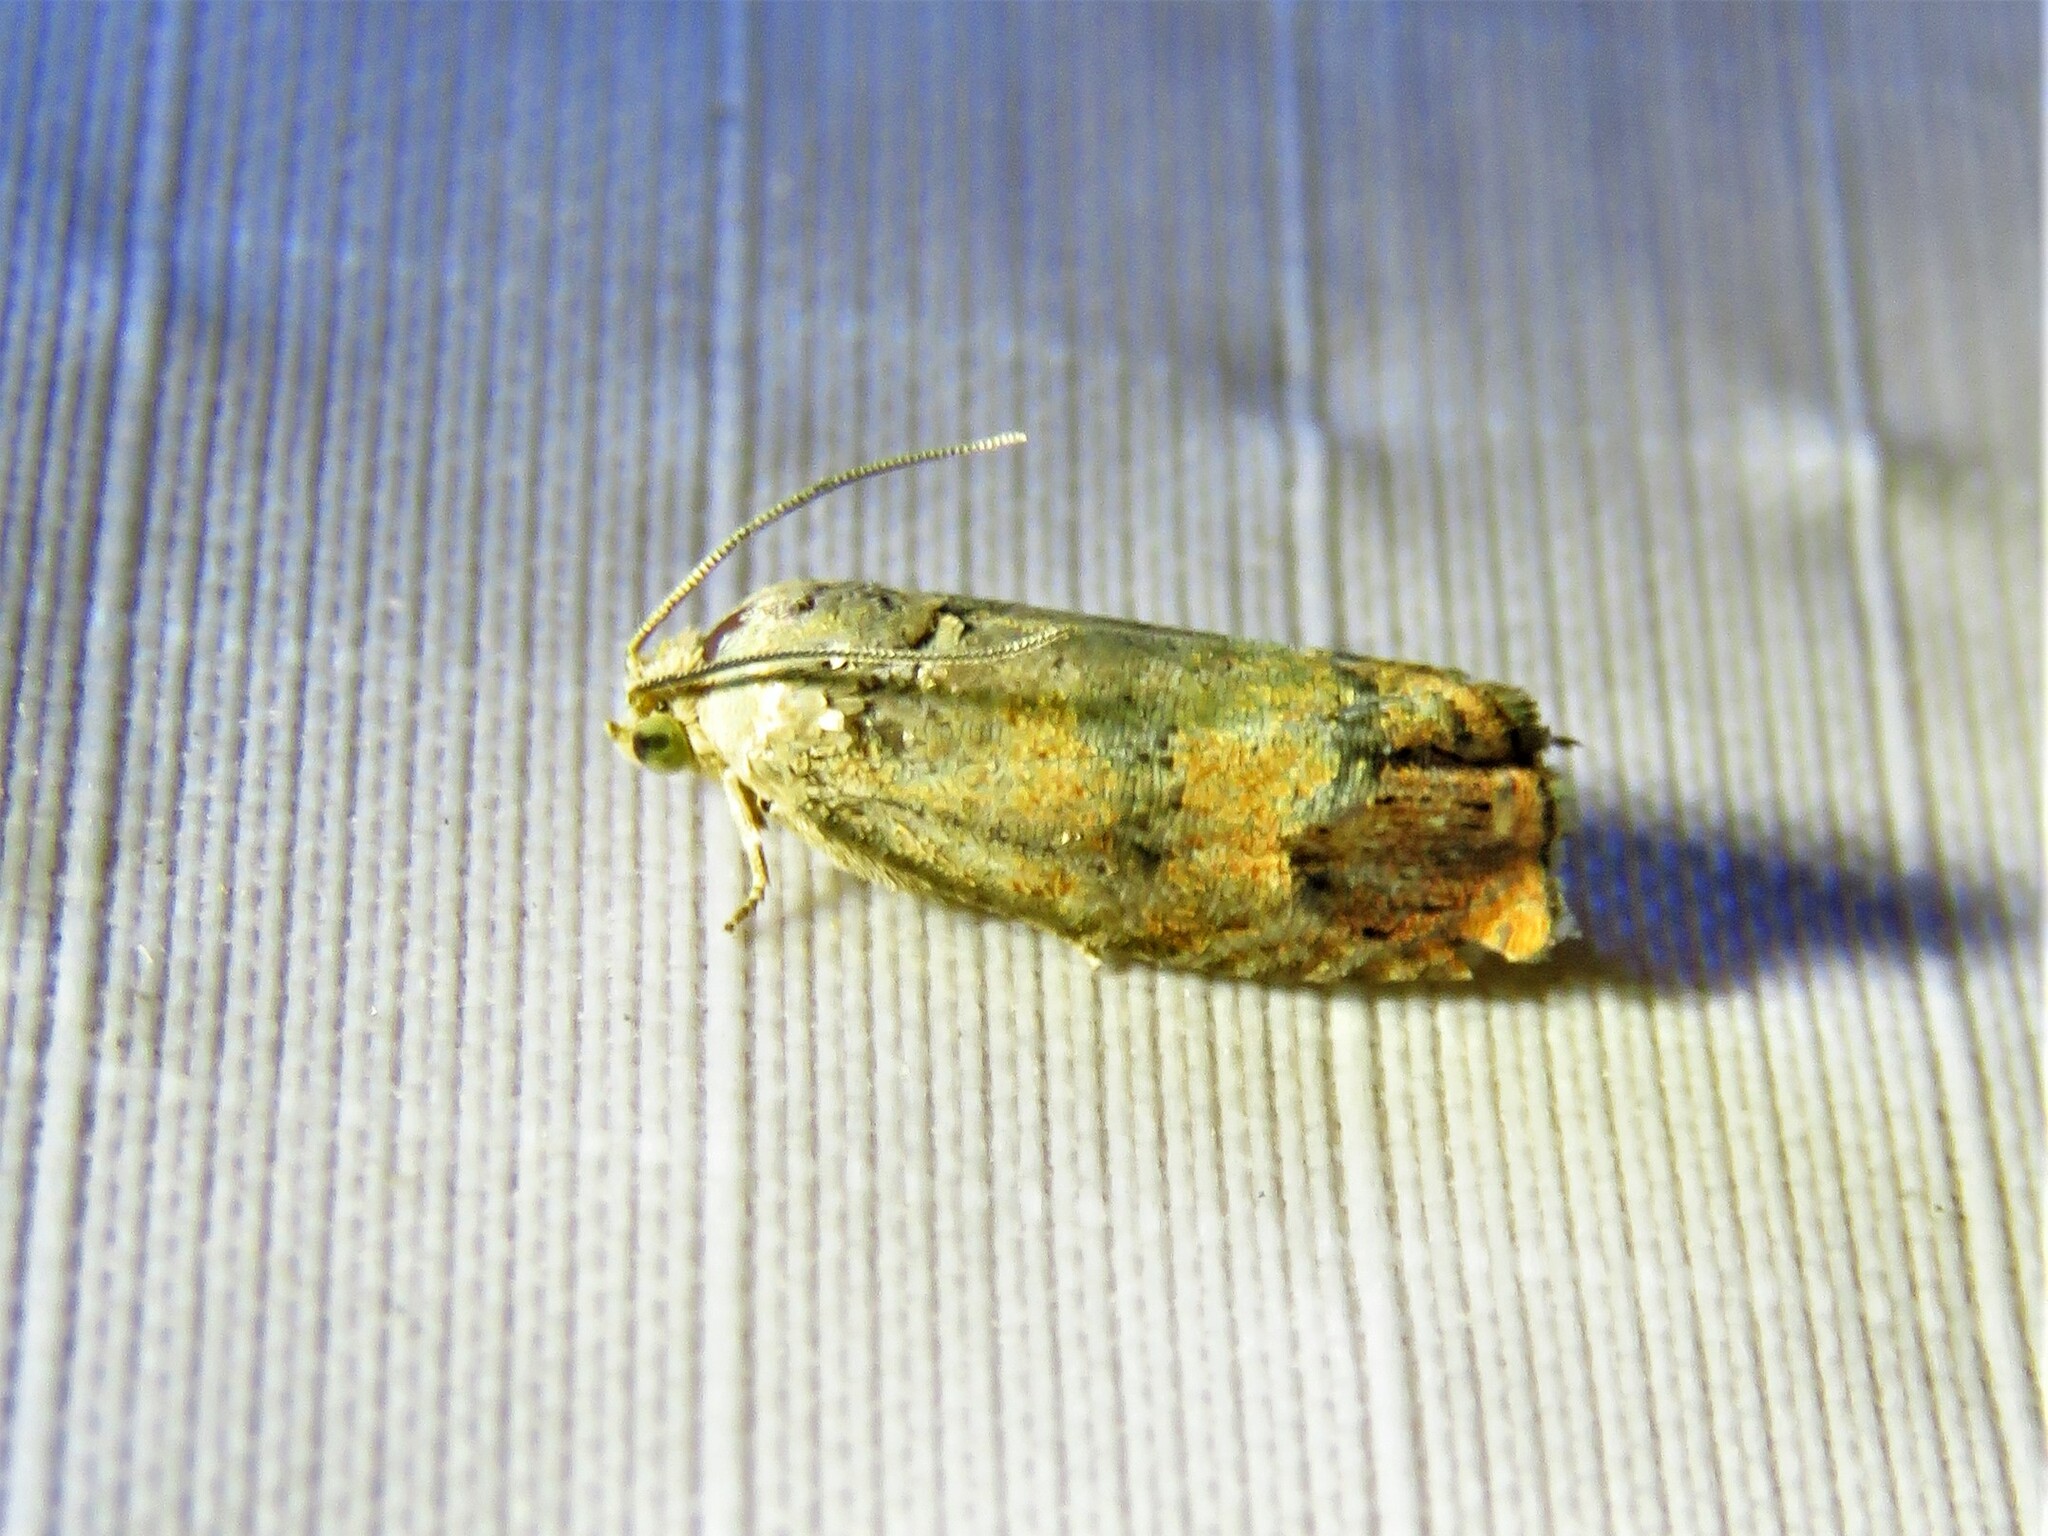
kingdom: Animalia
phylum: Arthropoda
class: Insecta
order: Lepidoptera
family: Tortricidae
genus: Cydia
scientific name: Cydia latiferreana
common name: Filbertworm moth
